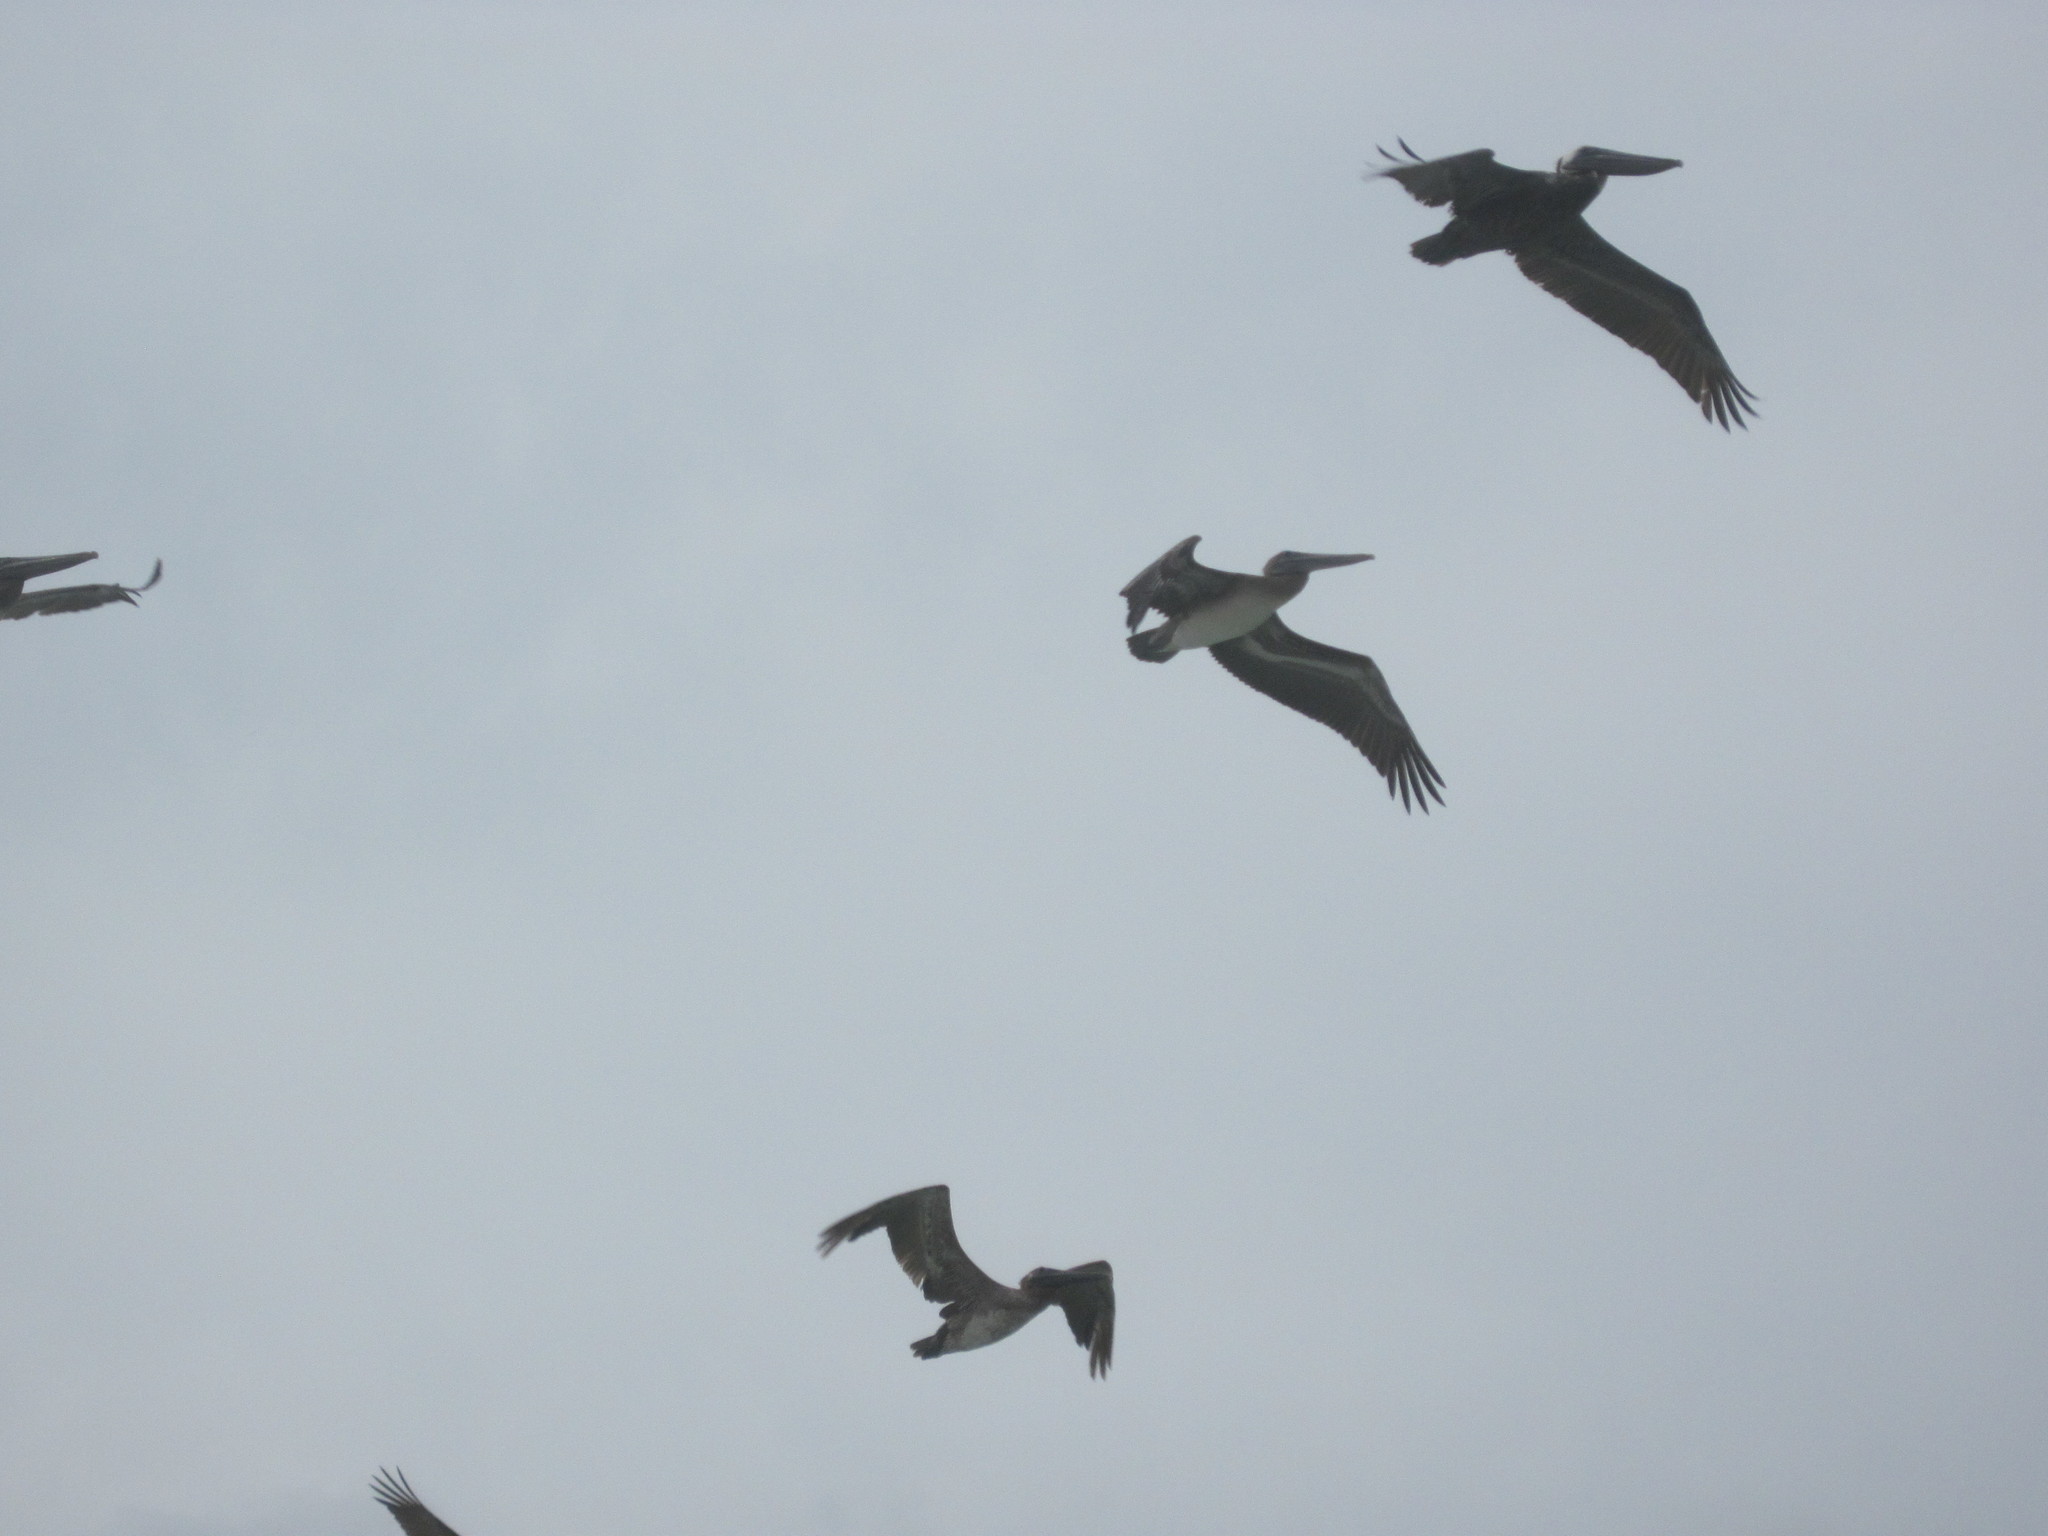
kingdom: Animalia
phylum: Chordata
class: Aves
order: Pelecaniformes
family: Pelecanidae
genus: Pelecanus
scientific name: Pelecanus occidentalis
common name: Brown pelican
